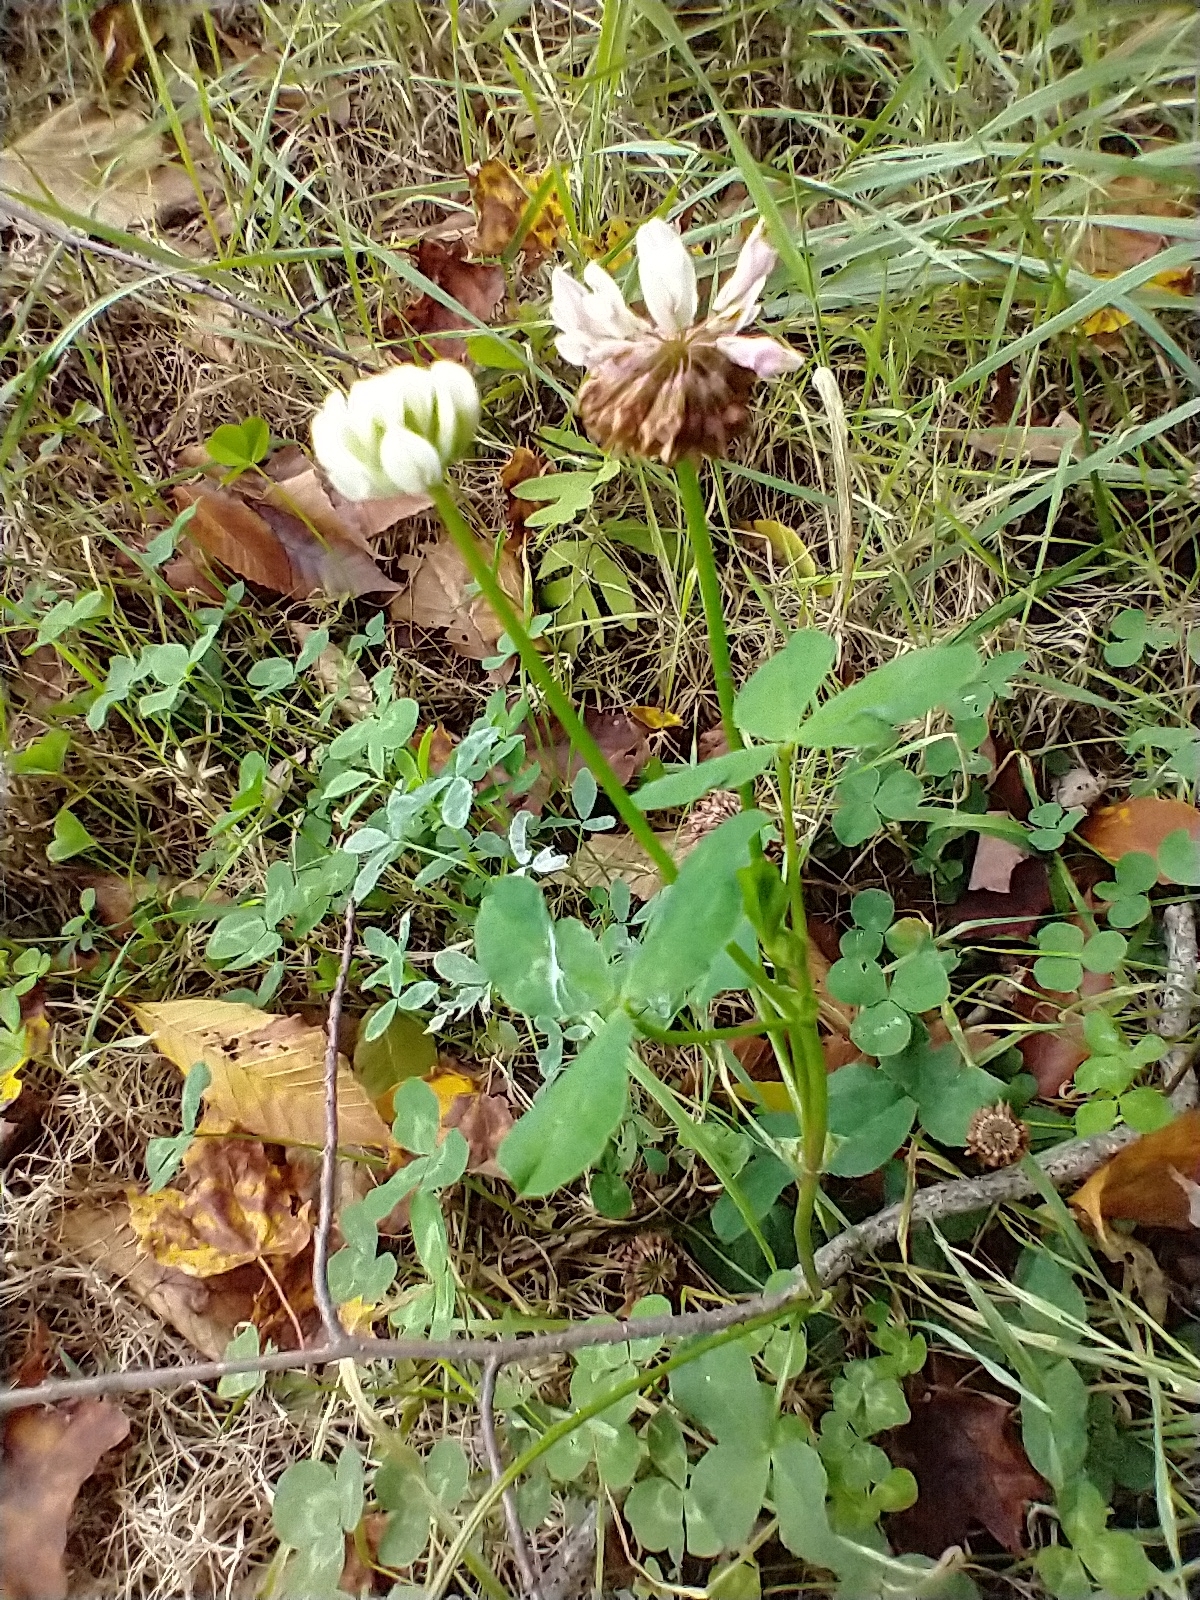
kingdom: Plantae
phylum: Tracheophyta
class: Magnoliopsida
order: Fabales
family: Fabaceae
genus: Trifolium
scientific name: Trifolium hybridum
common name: Alsike clover
